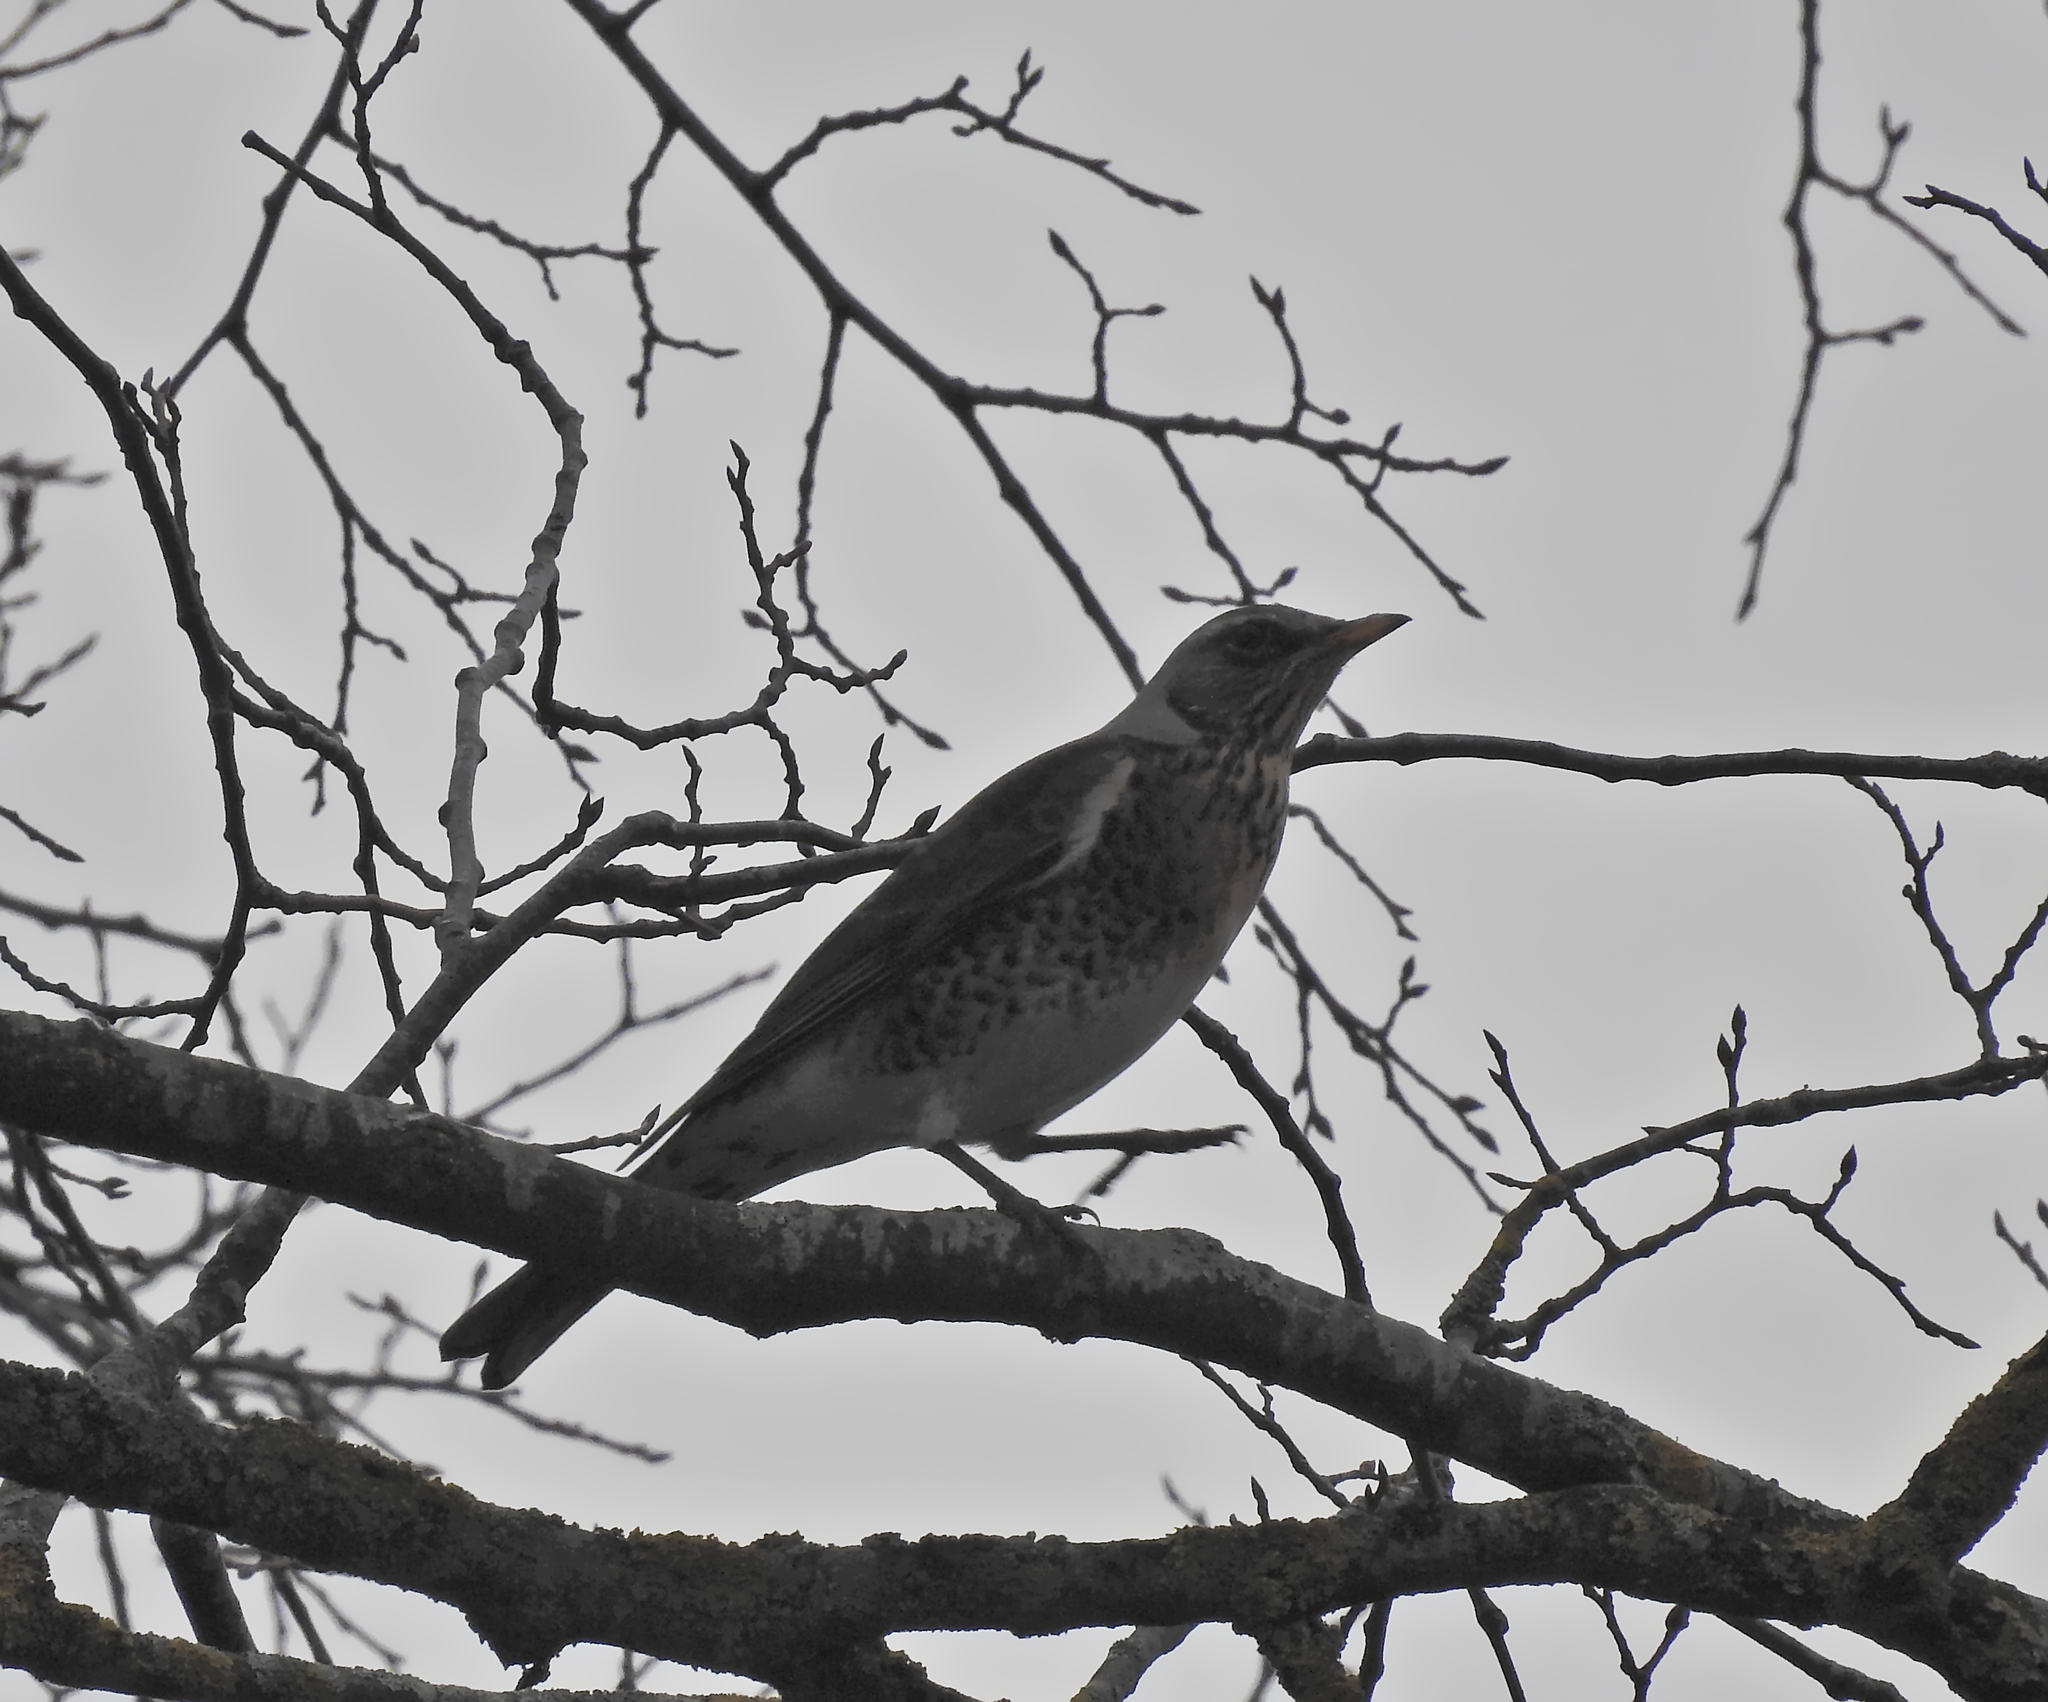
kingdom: Animalia
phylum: Chordata
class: Aves
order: Passeriformes
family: Turdidae
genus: Turdus
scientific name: Turdus pilaris
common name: Fieldfare
